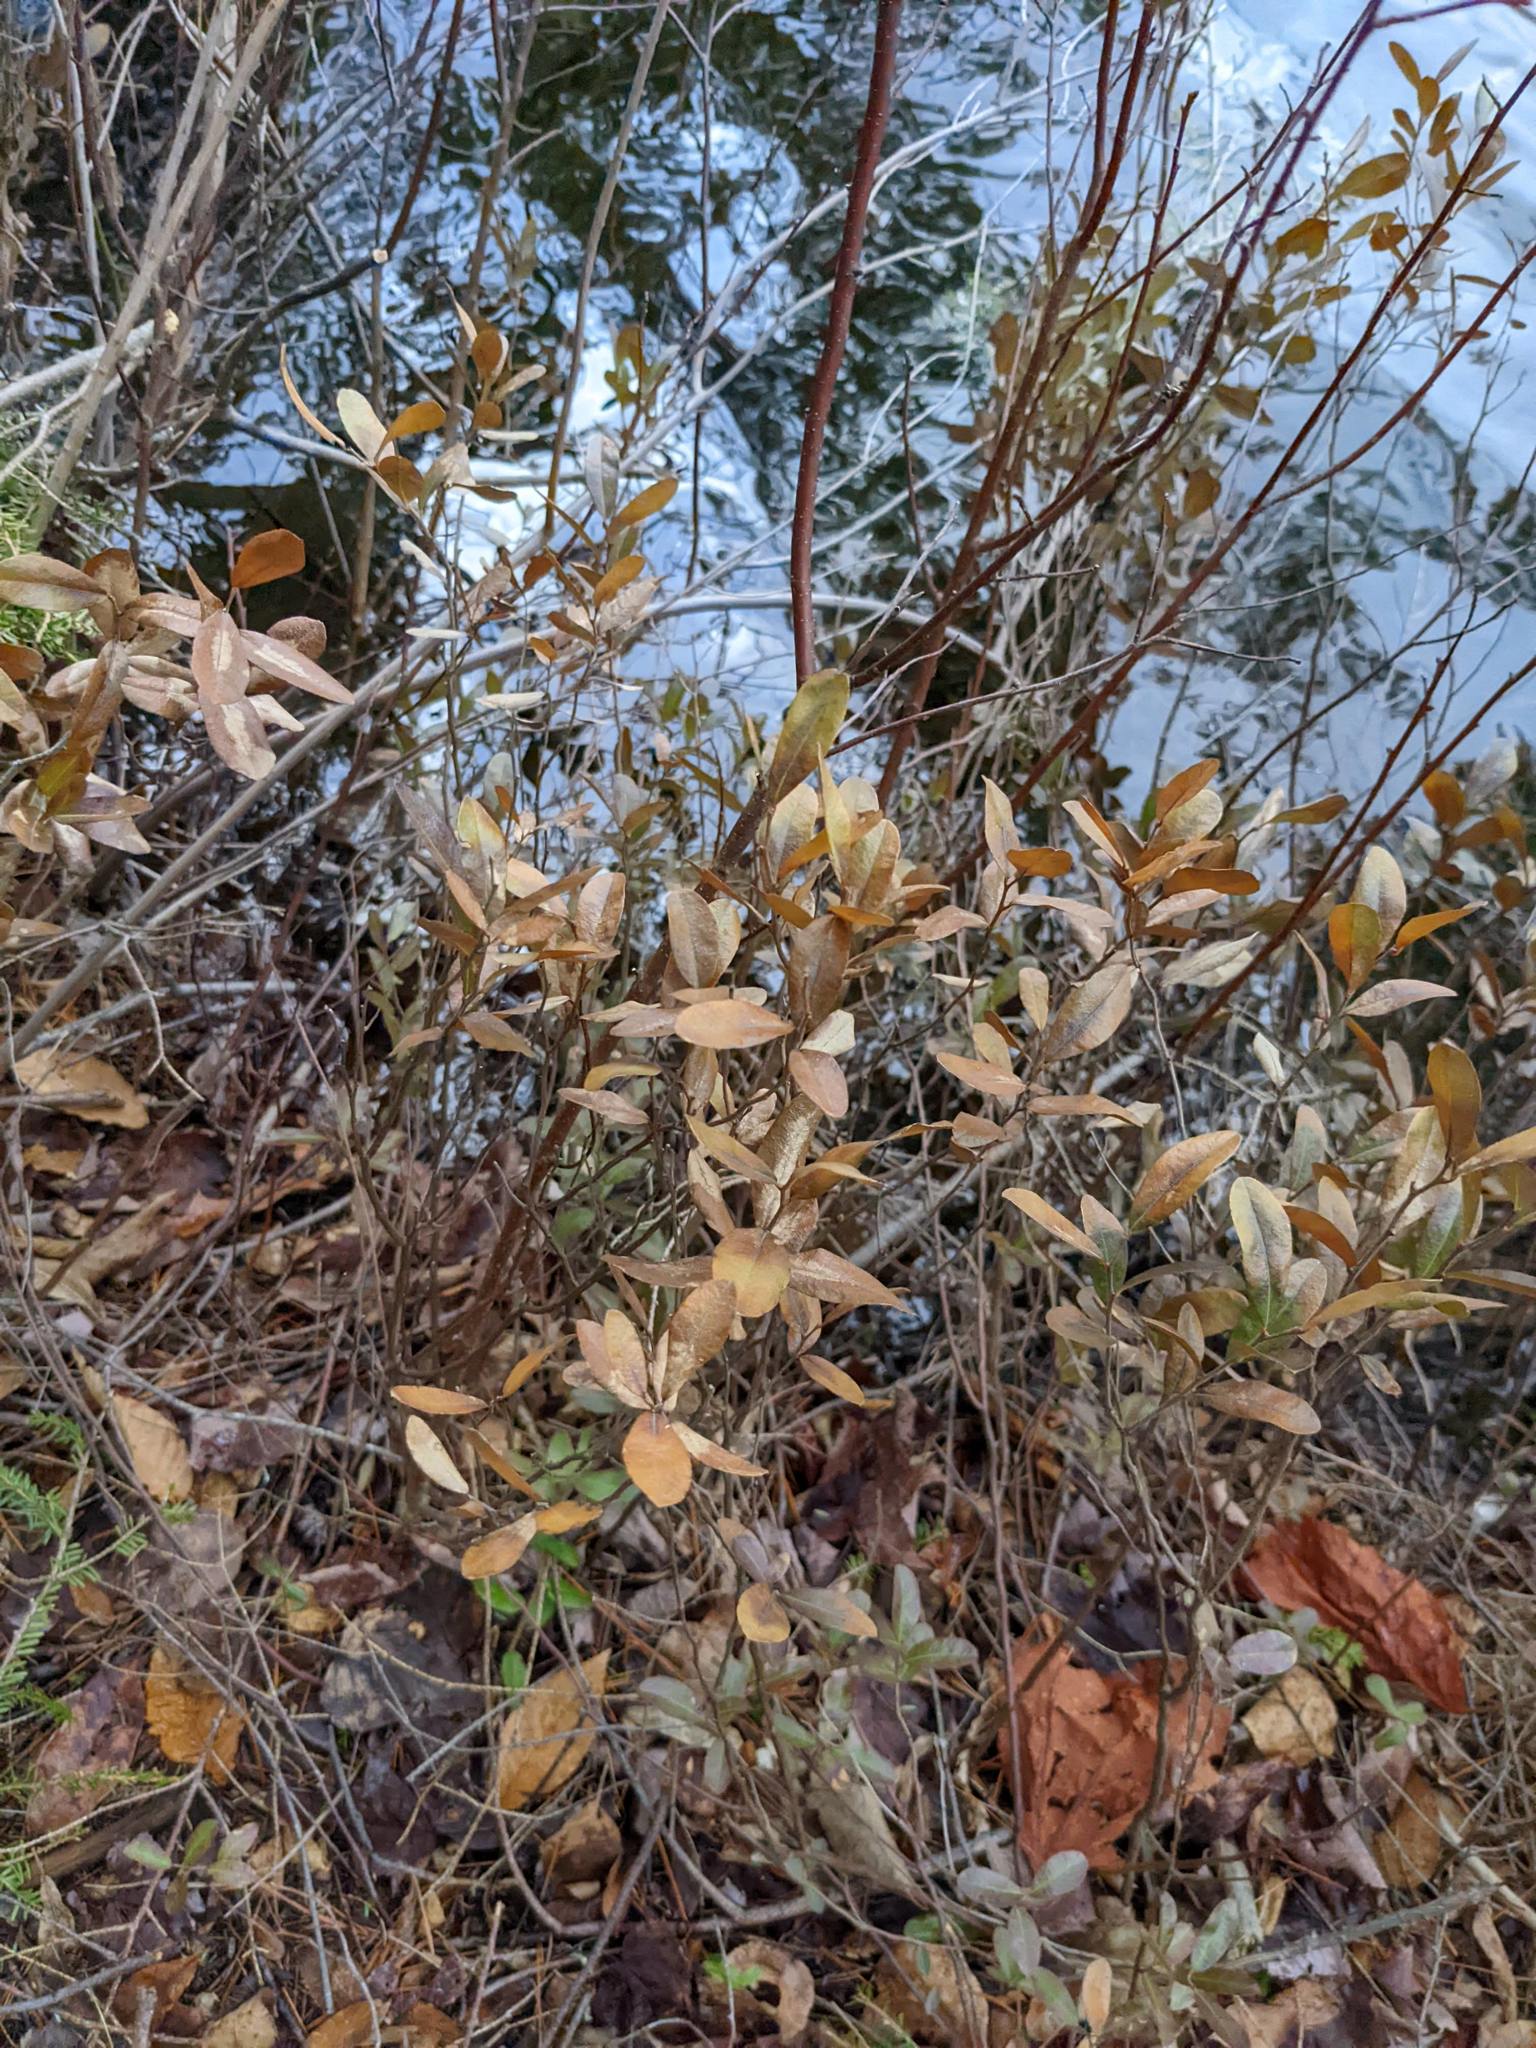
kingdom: Plantae
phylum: Tracheophyta
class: Magnoliopsida
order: Ericales
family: Ericaceae
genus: Chamaedaphne
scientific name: Chamaedaphne calyculata
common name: Leatherleaf
